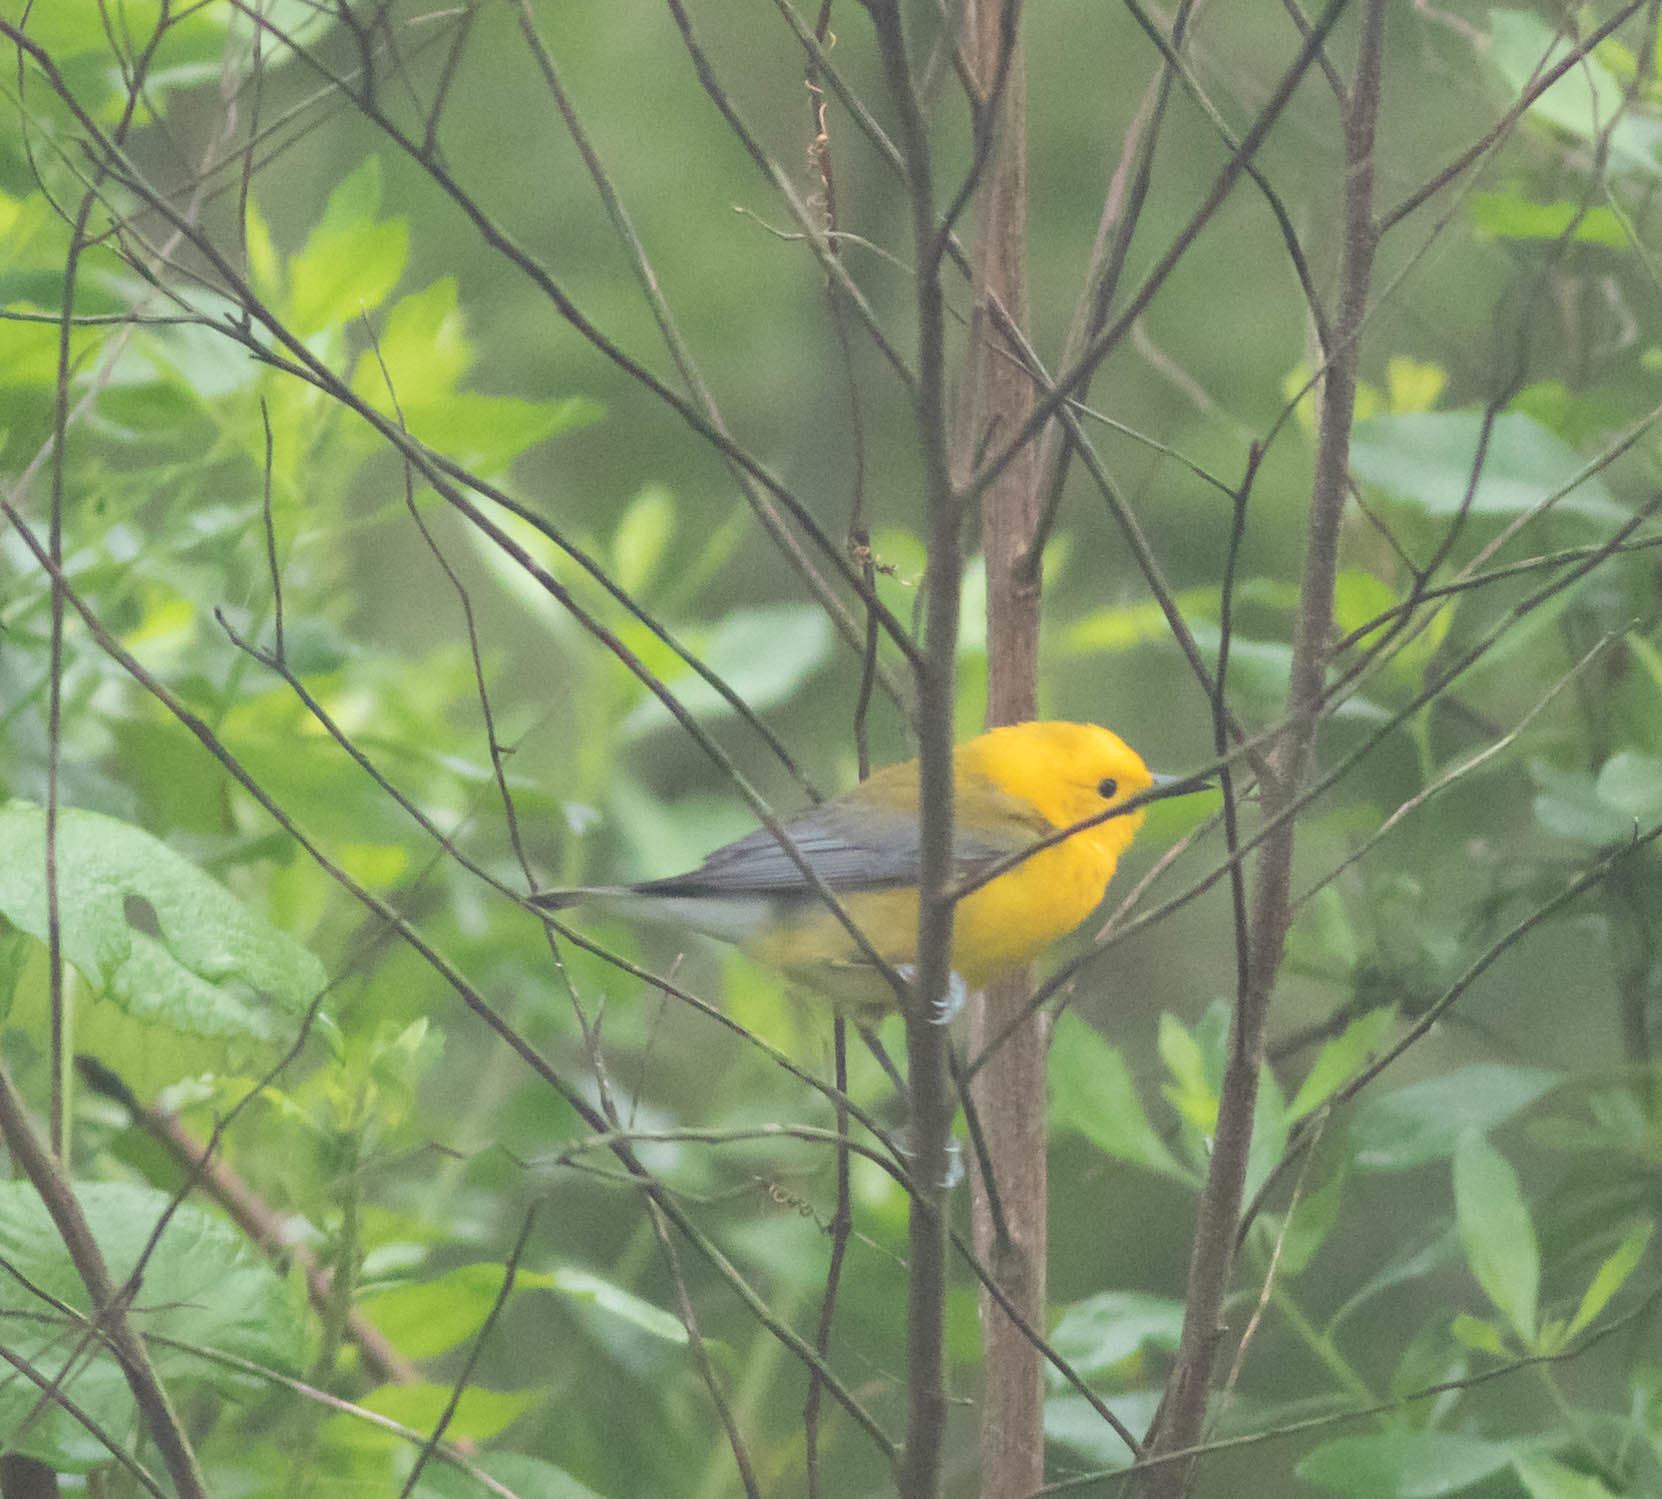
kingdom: Animalia
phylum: Chordata
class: Aves
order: Passeriformes
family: Parulidae
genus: Protonotaria
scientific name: Protonotaria citrea
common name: Prothonotary warbler
